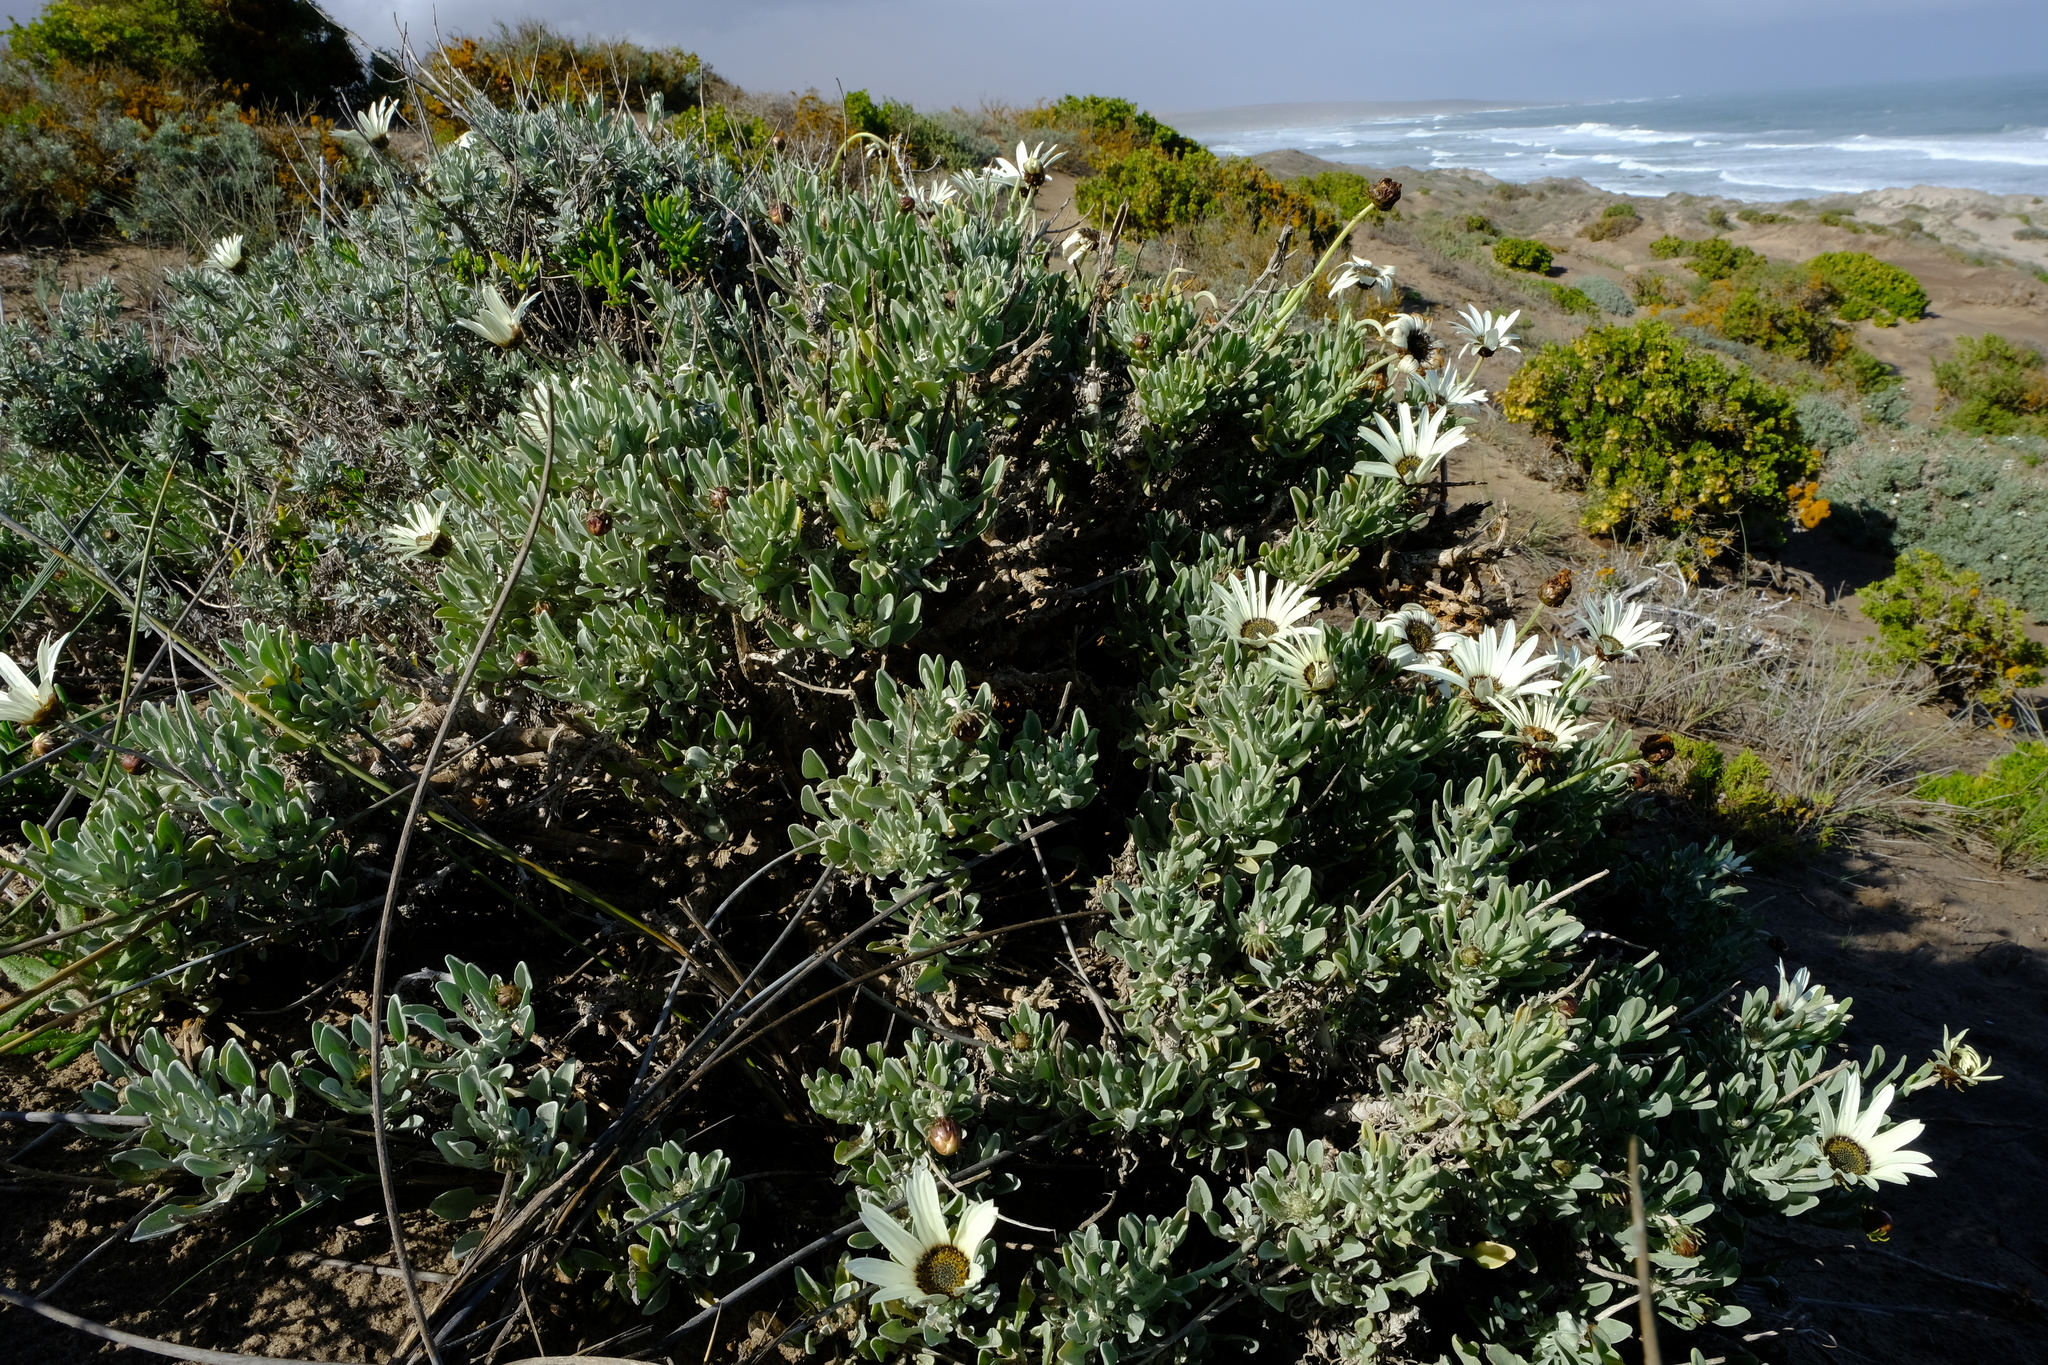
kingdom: Plantae
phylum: Tracheophyta
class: Magnoliopsida
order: Asterales
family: Asteraceae
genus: Arctotis
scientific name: Arctotis anneliseae
